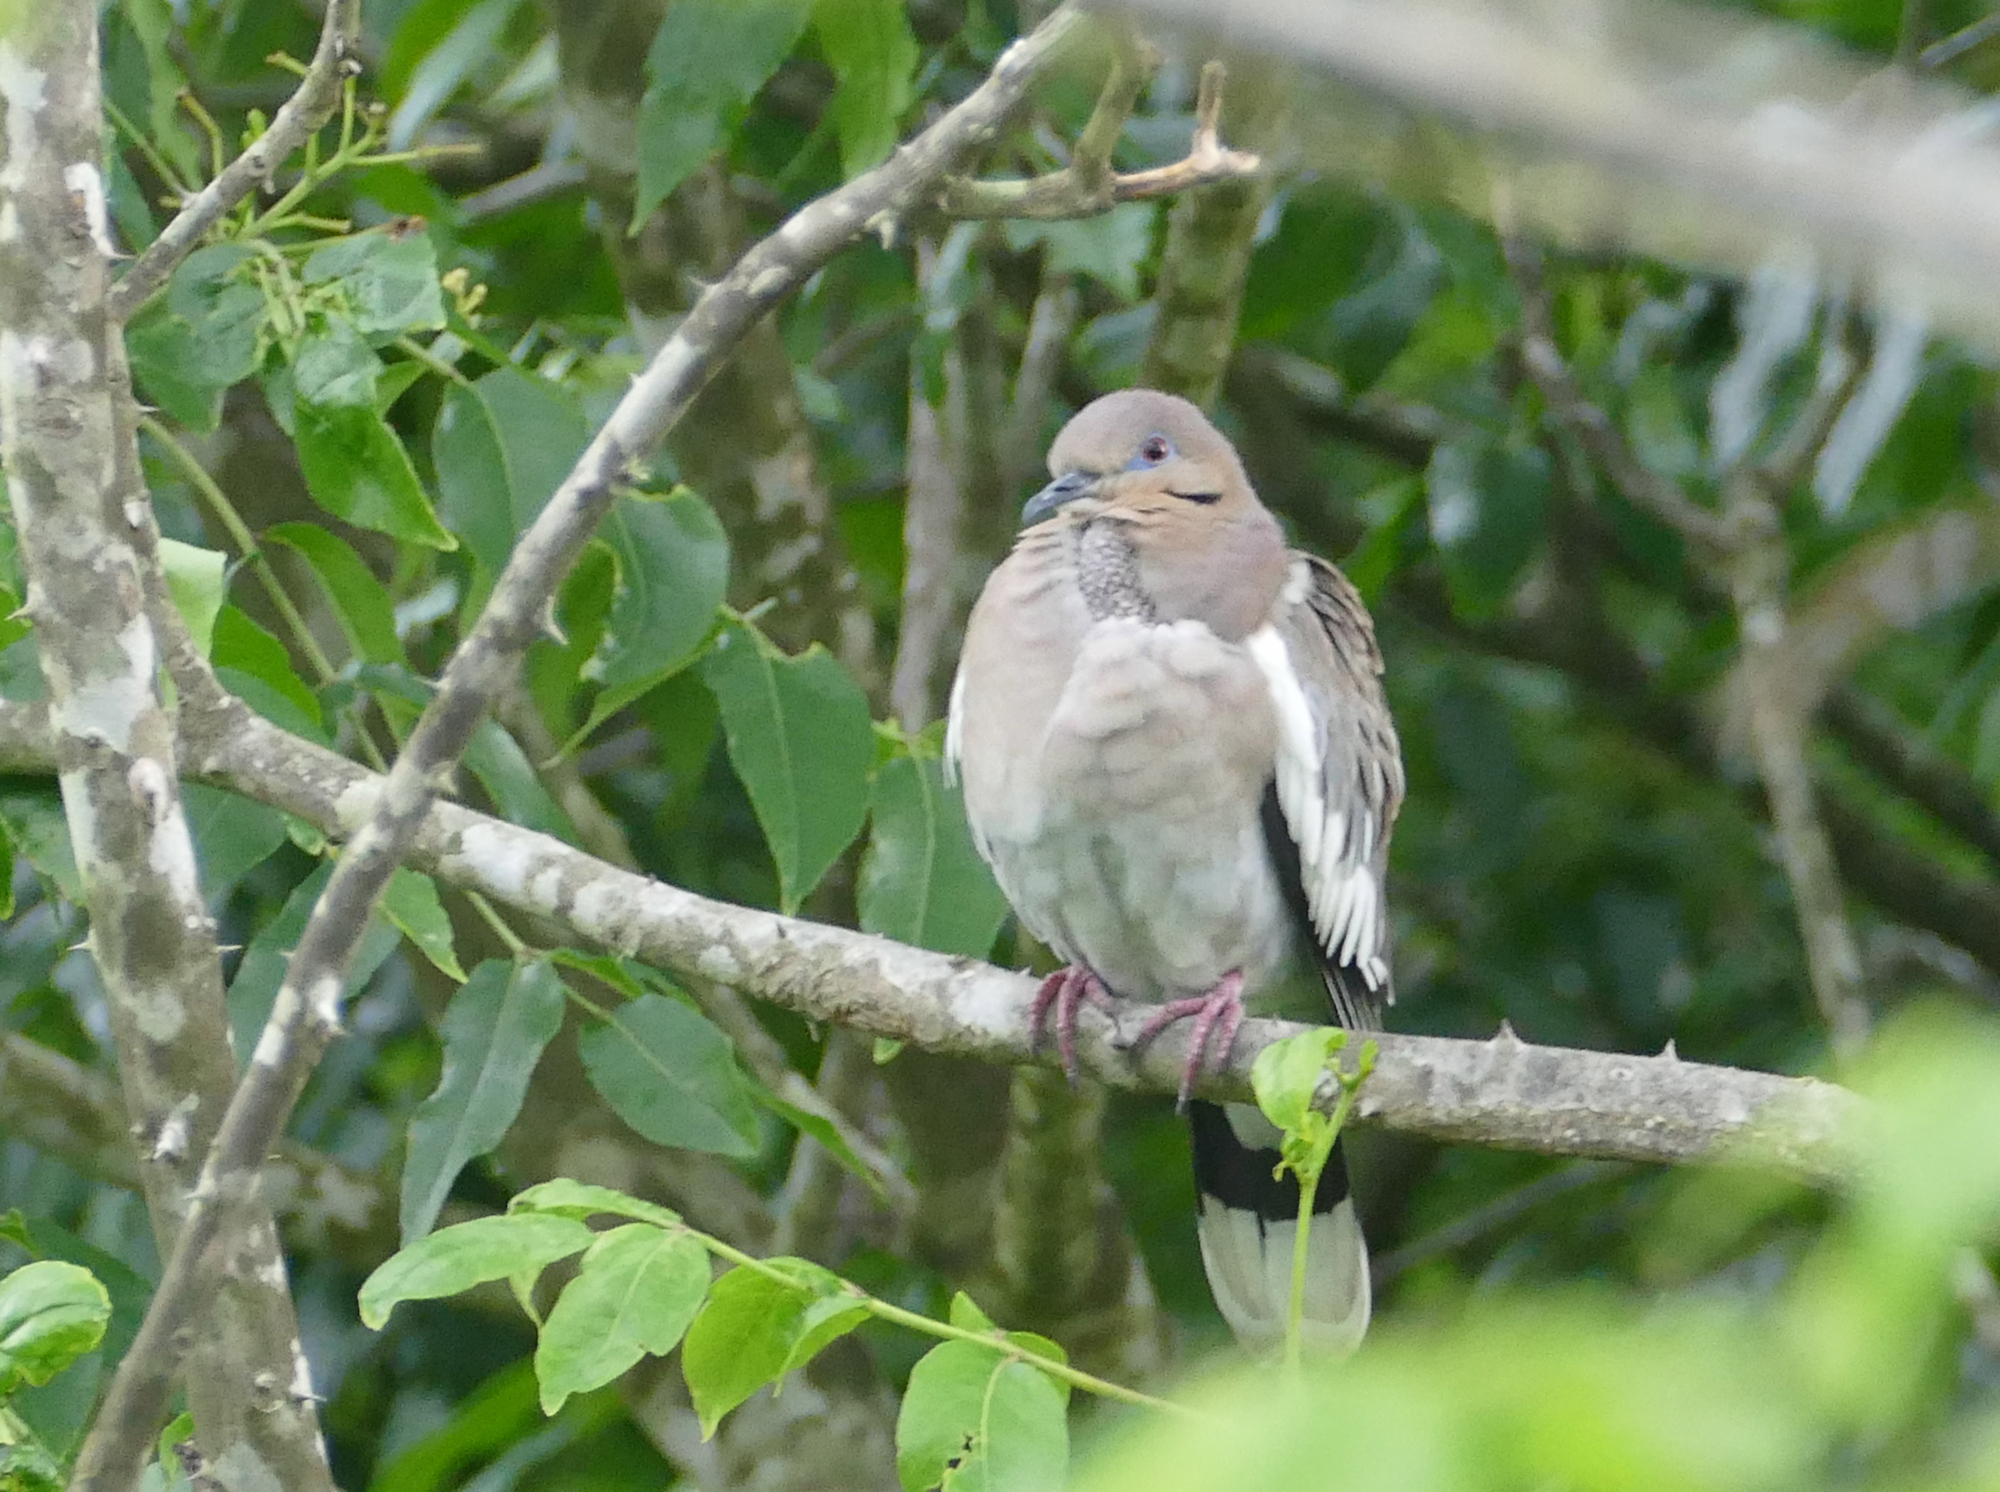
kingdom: Animalia
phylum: Chordata
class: Aves
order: Columbiformes
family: Columbidae
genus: Zenaida
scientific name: Zenaida asiatica
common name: White-winged dove
